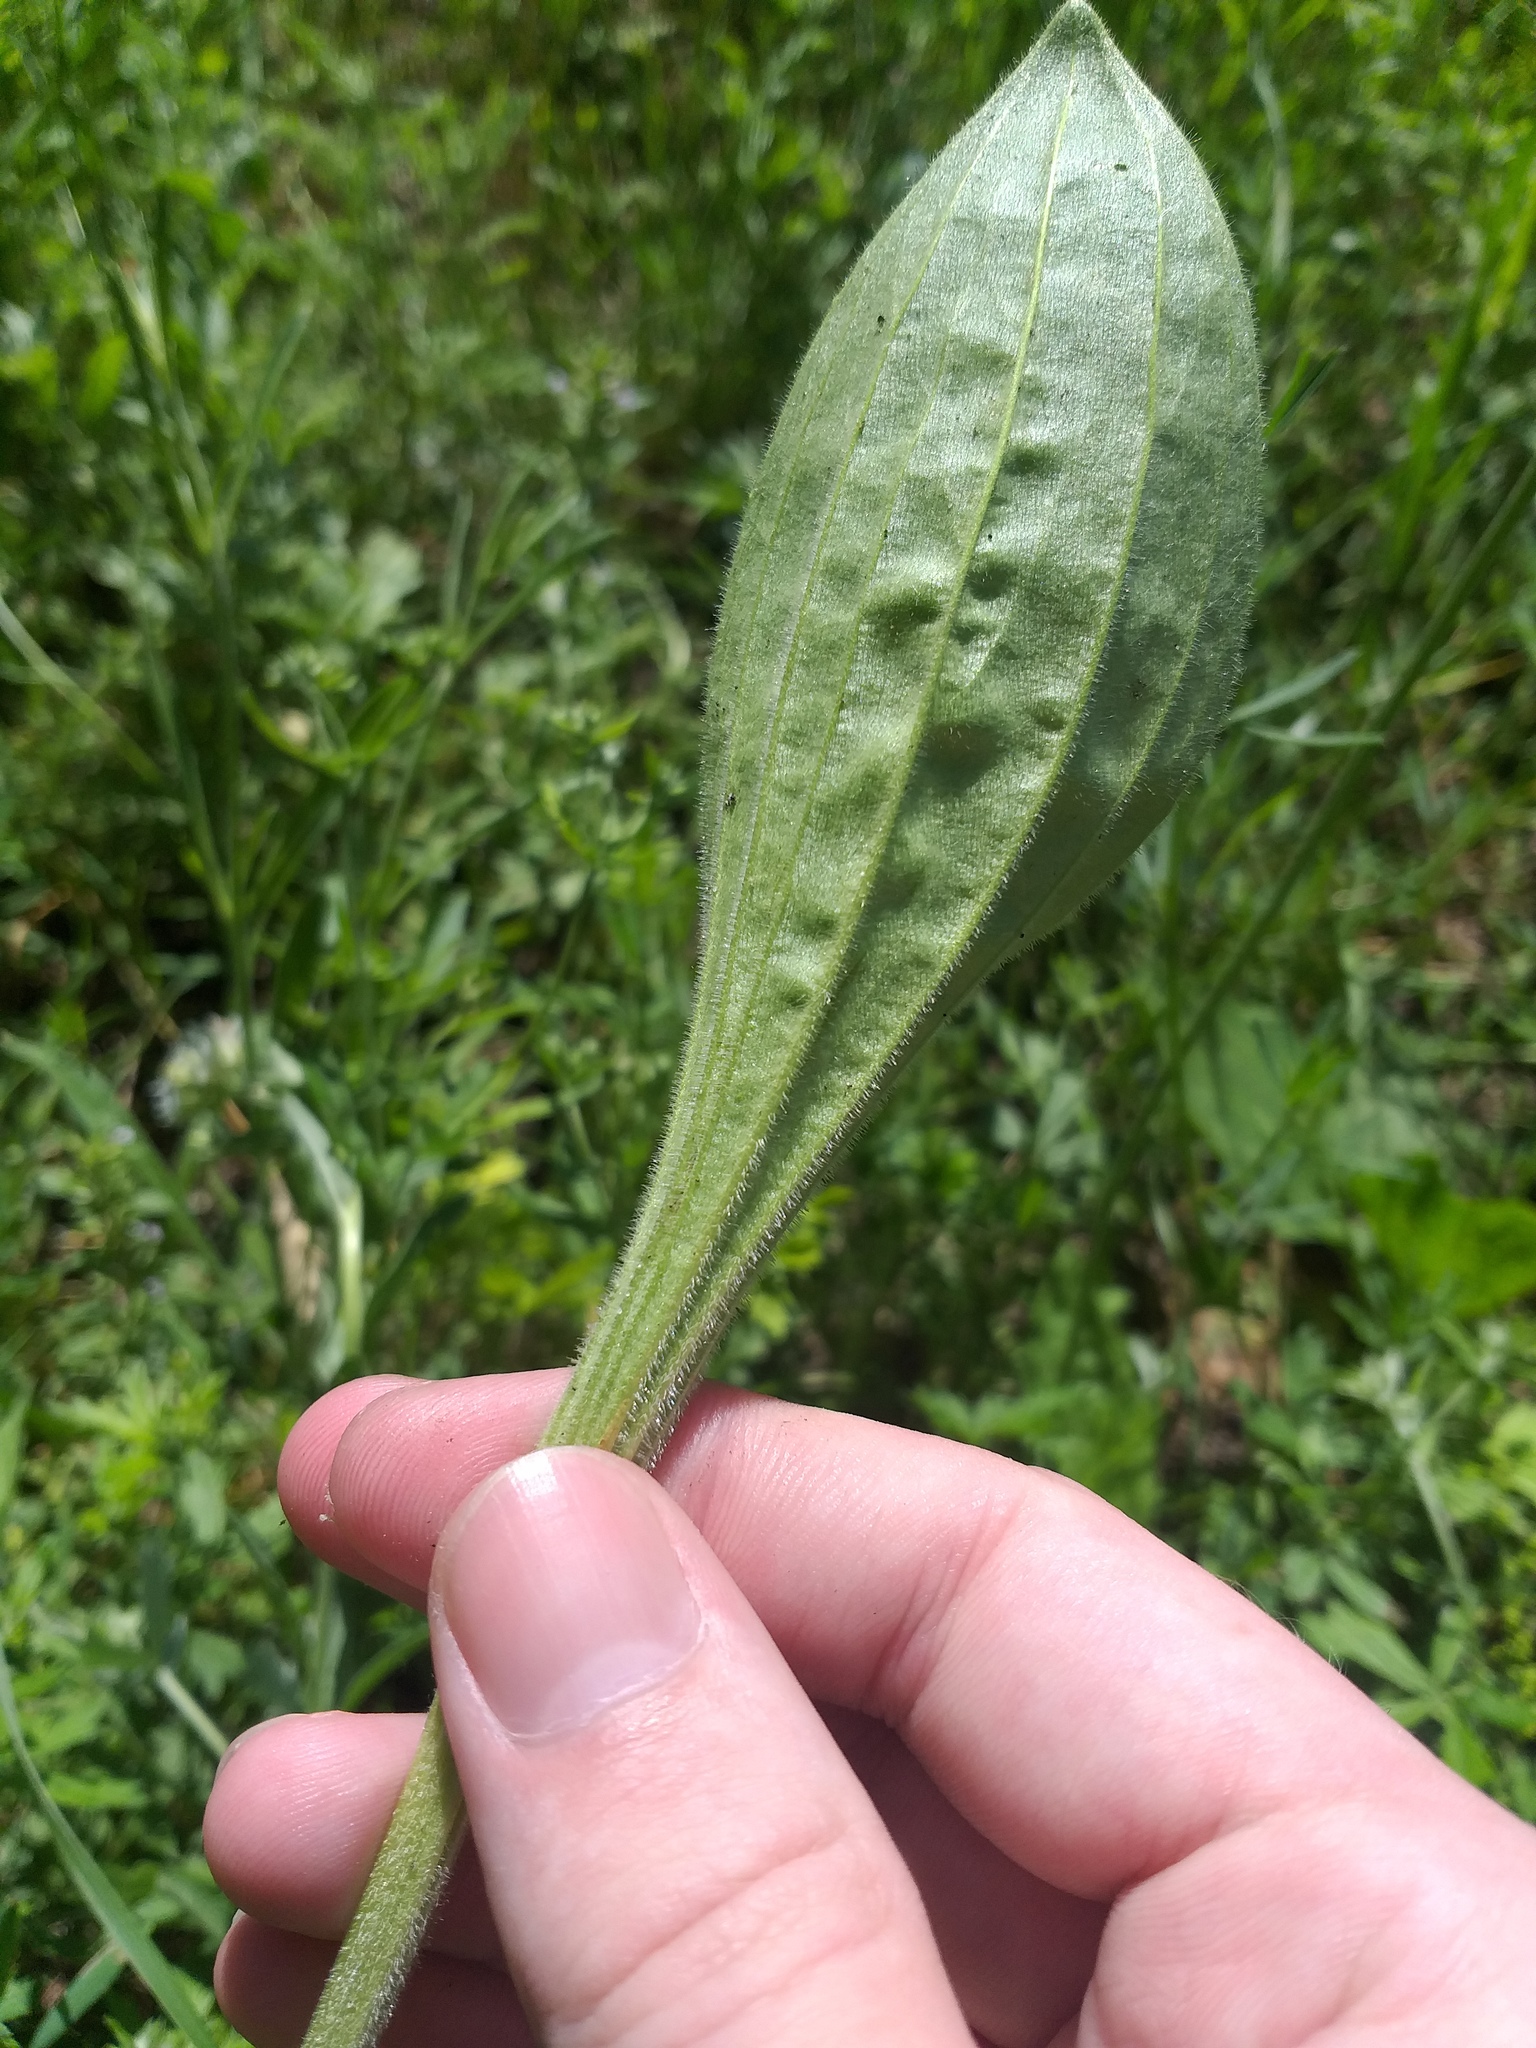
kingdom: Plantae
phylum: Tracheophyta
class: Magnoliopsida
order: Lamiales
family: Plantaginaceae
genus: Plantago
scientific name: Plantago urvillei
